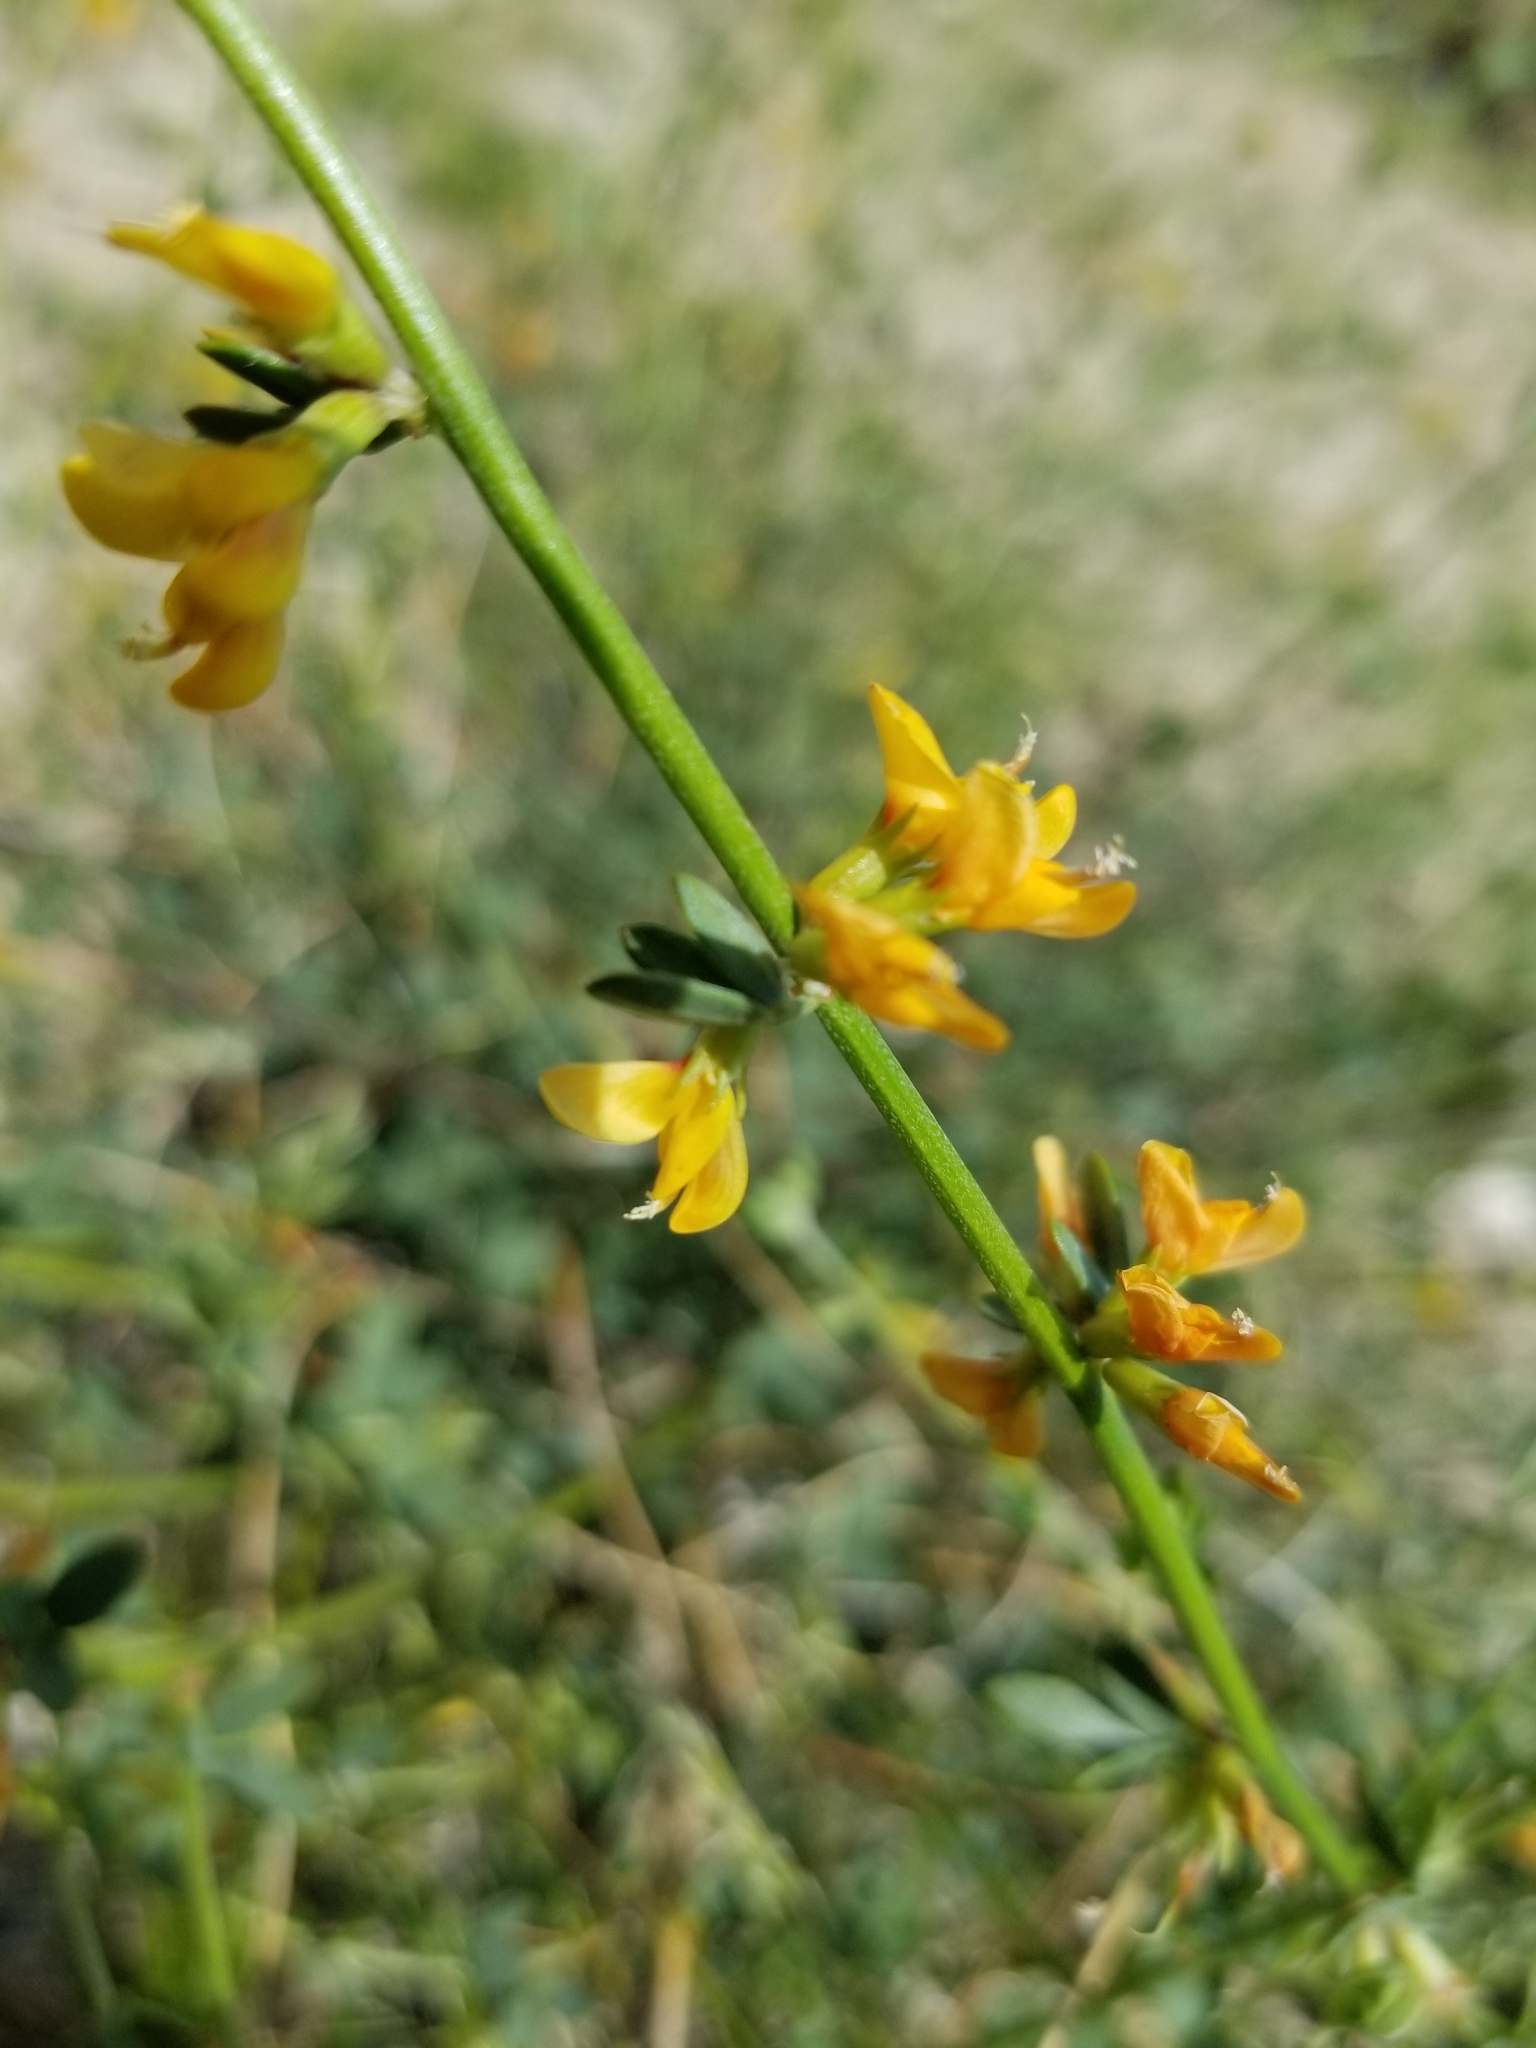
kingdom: Plantae
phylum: Tracheophyta
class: Magnoliopsida
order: Fabales
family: Fabaceae
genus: Acmispon
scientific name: Acmispon glaber
